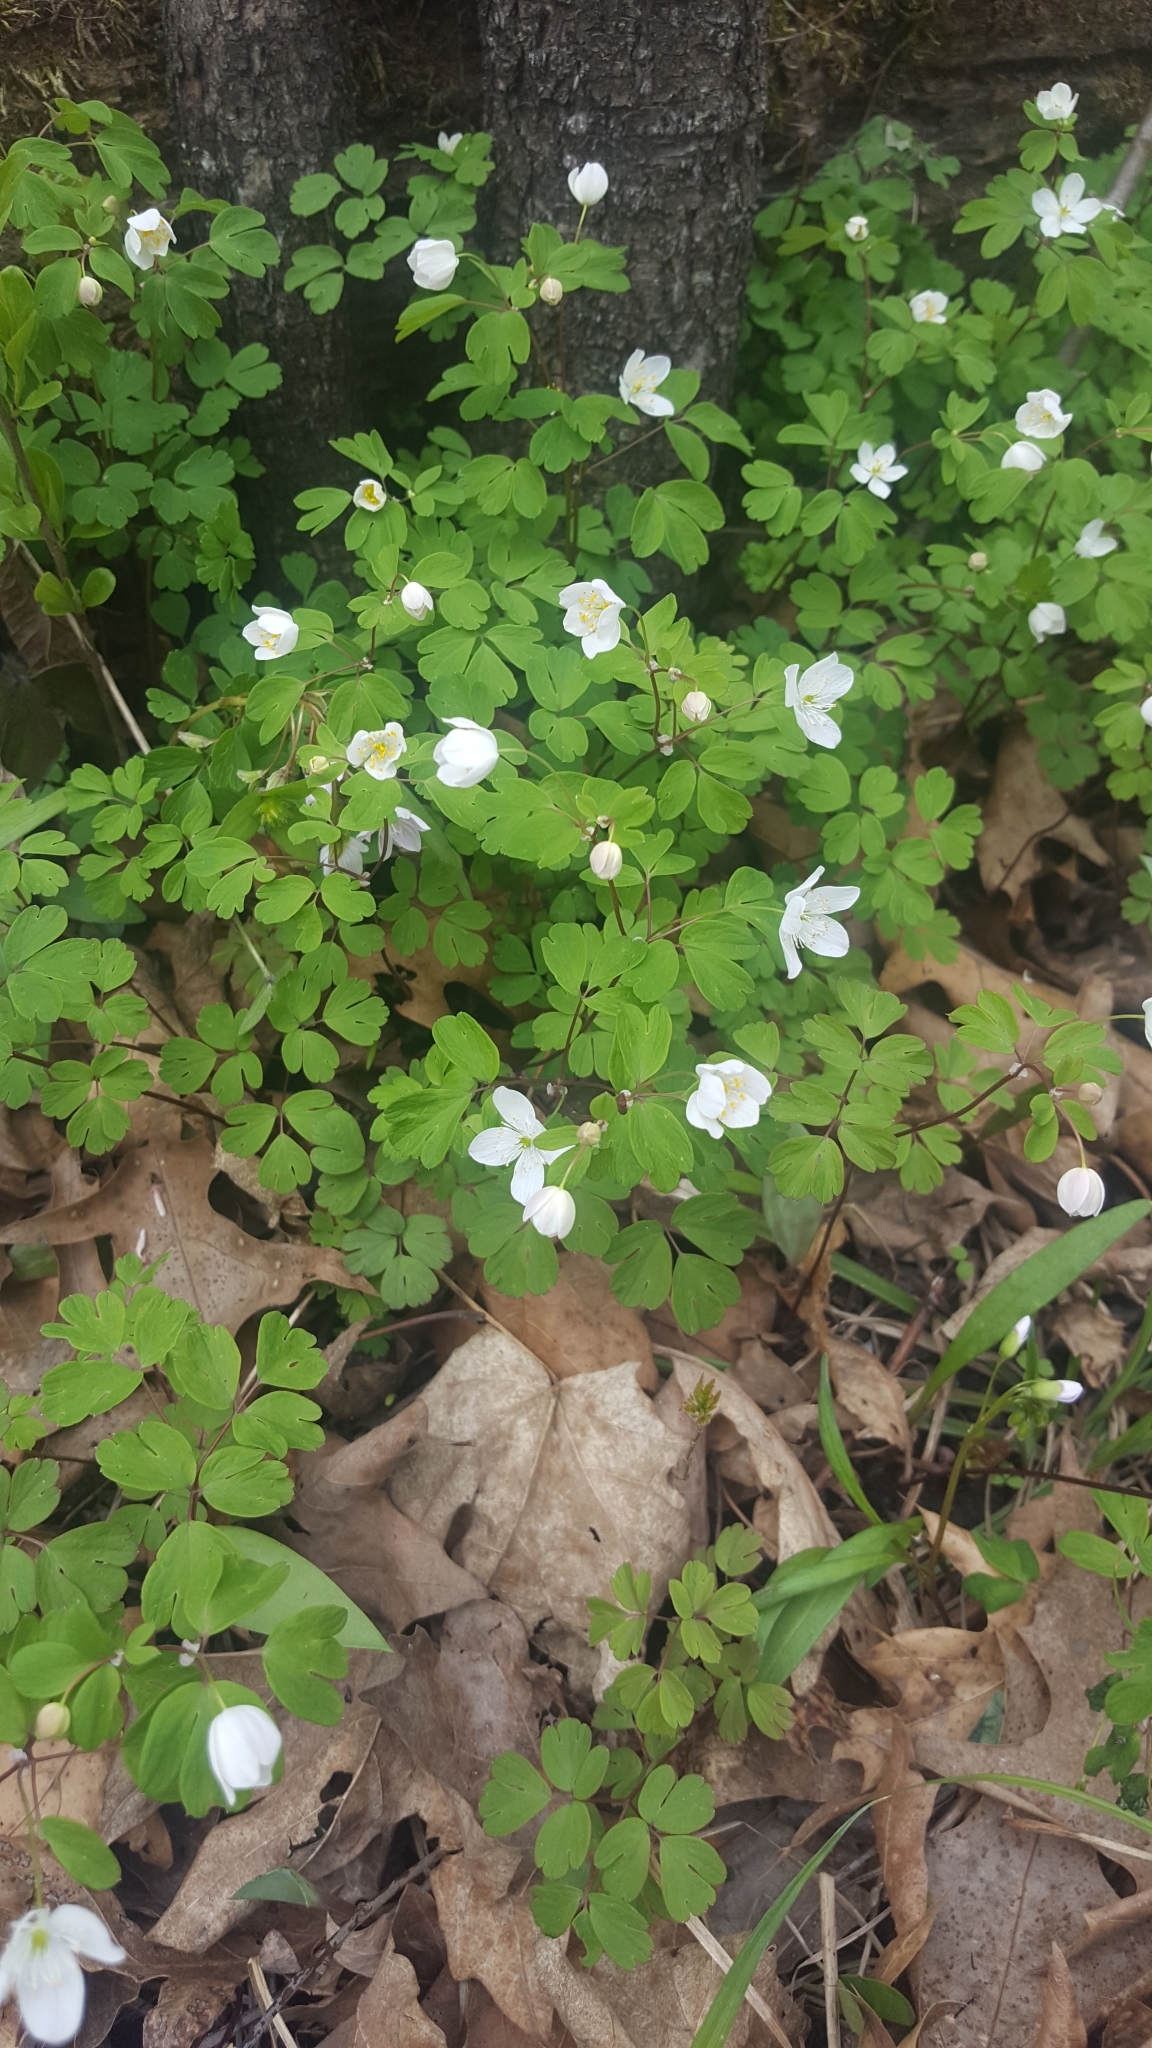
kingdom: Plantae
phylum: Tracheophyta
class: Magnoliopsida
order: Ranunculales
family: Ranunculaceae
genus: Enemion
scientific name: Enemion biternatum
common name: Eastern false rue-anemone
